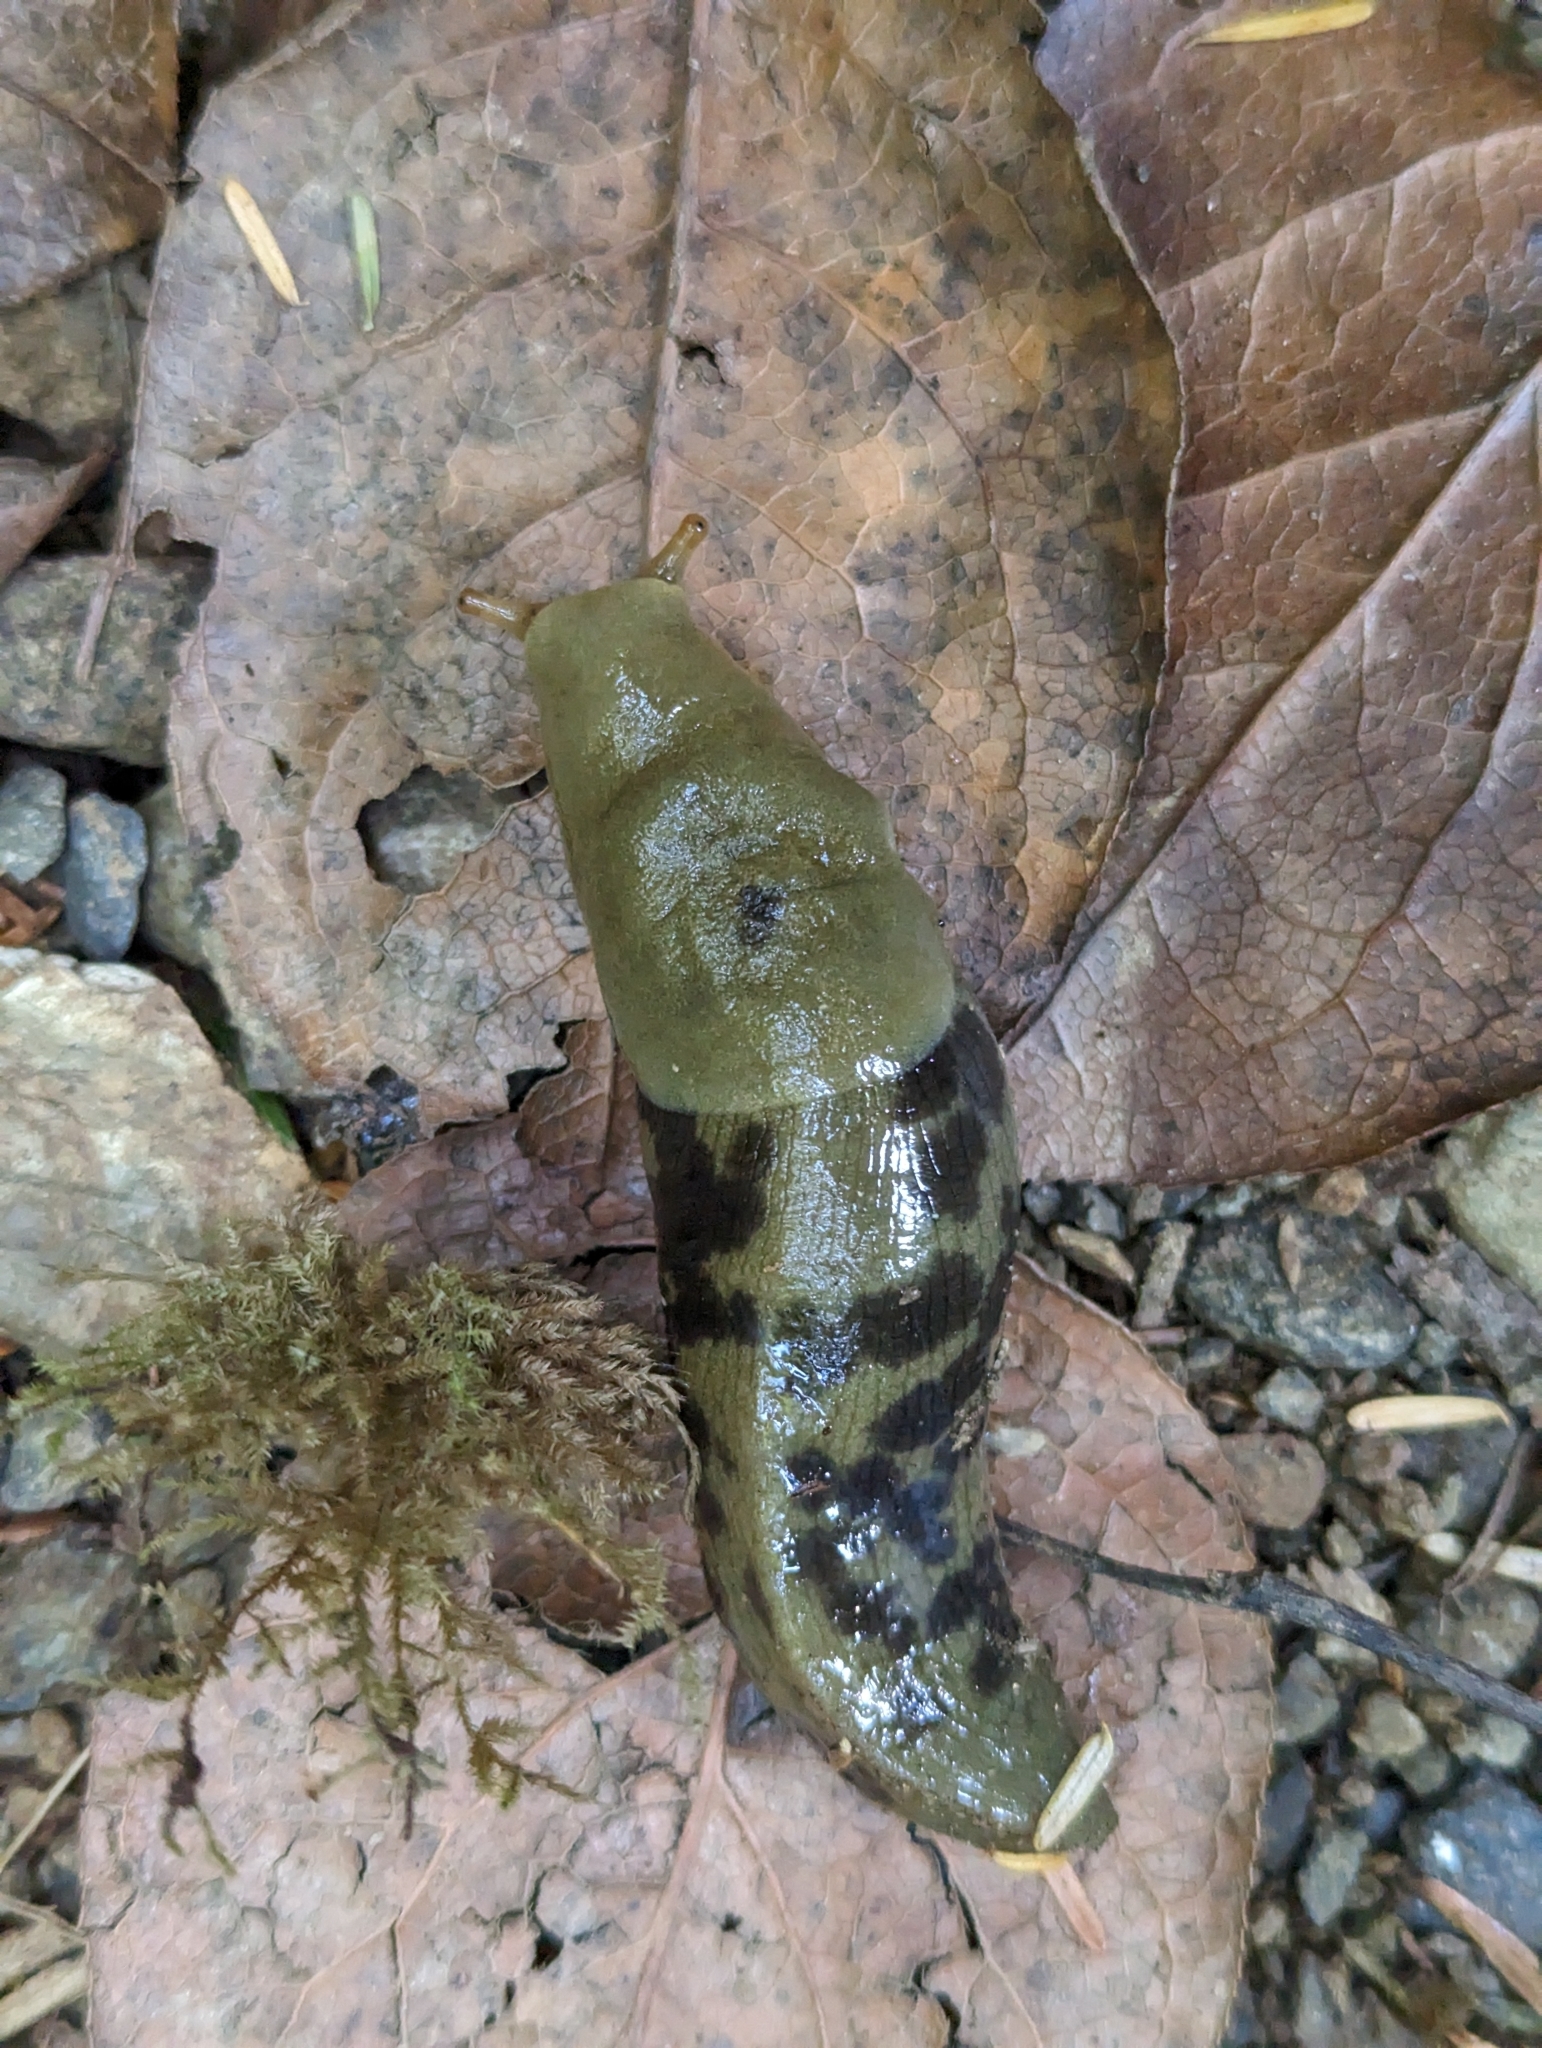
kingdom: Animalia
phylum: Mollusca
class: Gastropoda
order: Stylommatophora
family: Ariolimacidae
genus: Ariolimax
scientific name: Ariolimax columbianus
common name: Pacific banana slug
